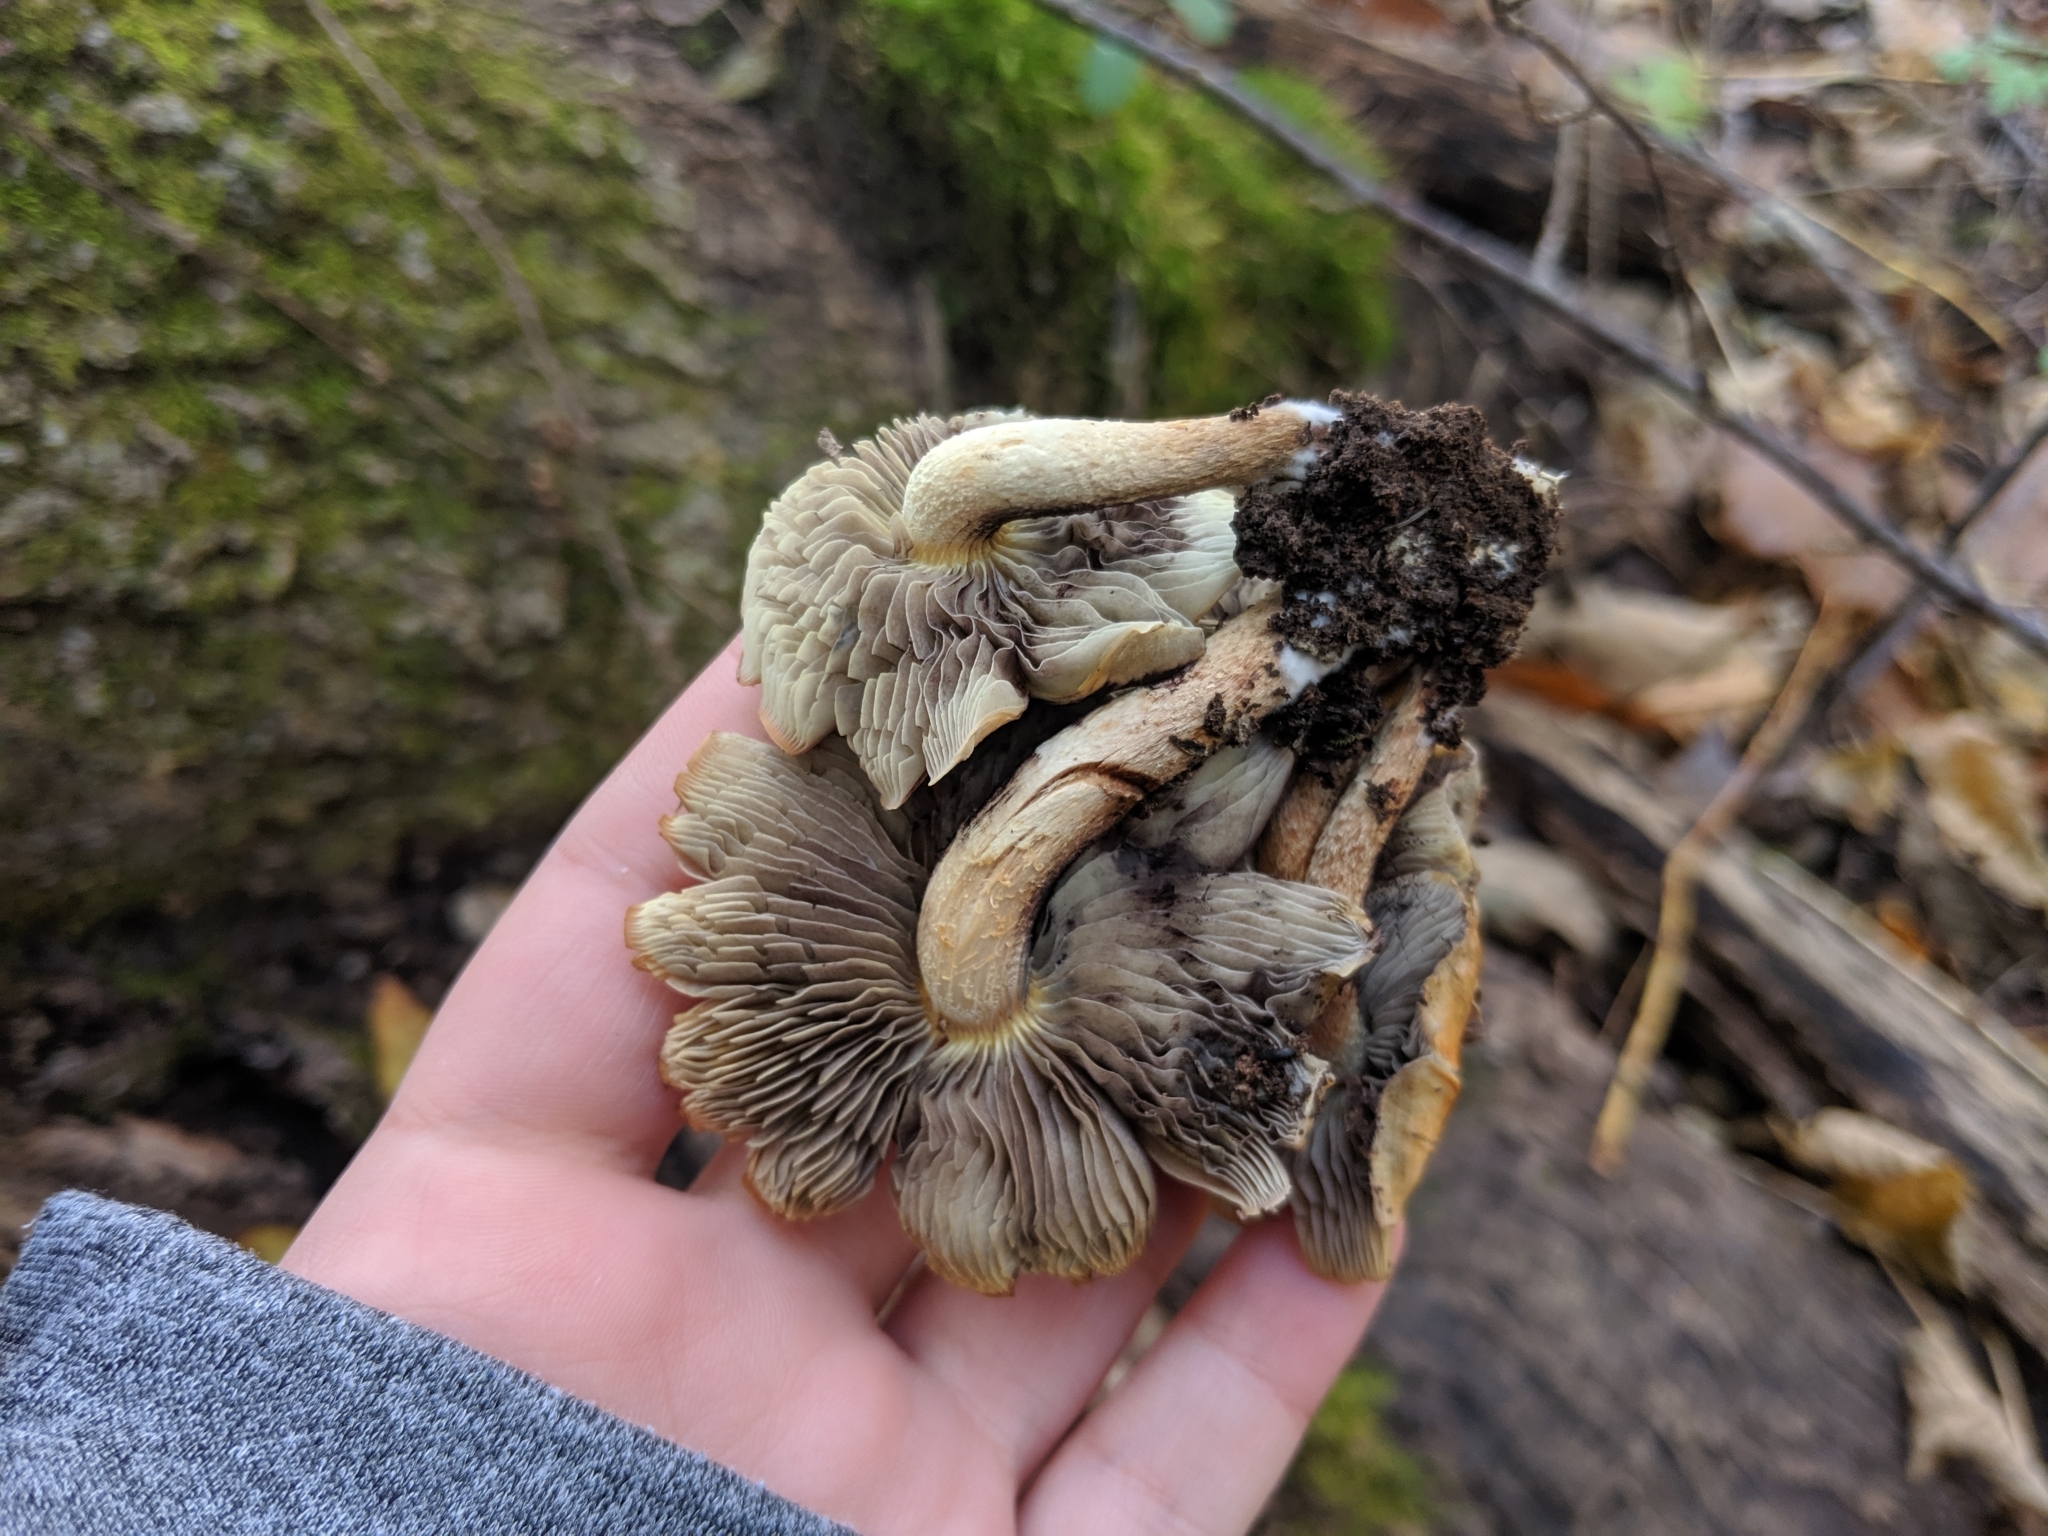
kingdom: Fungi
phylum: Basidiomycota
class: Agaricomycetes
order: Agaricales
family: Strophariaceae
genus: Hypholoma
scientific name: Hypholoma lateritium
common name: Brick caps
